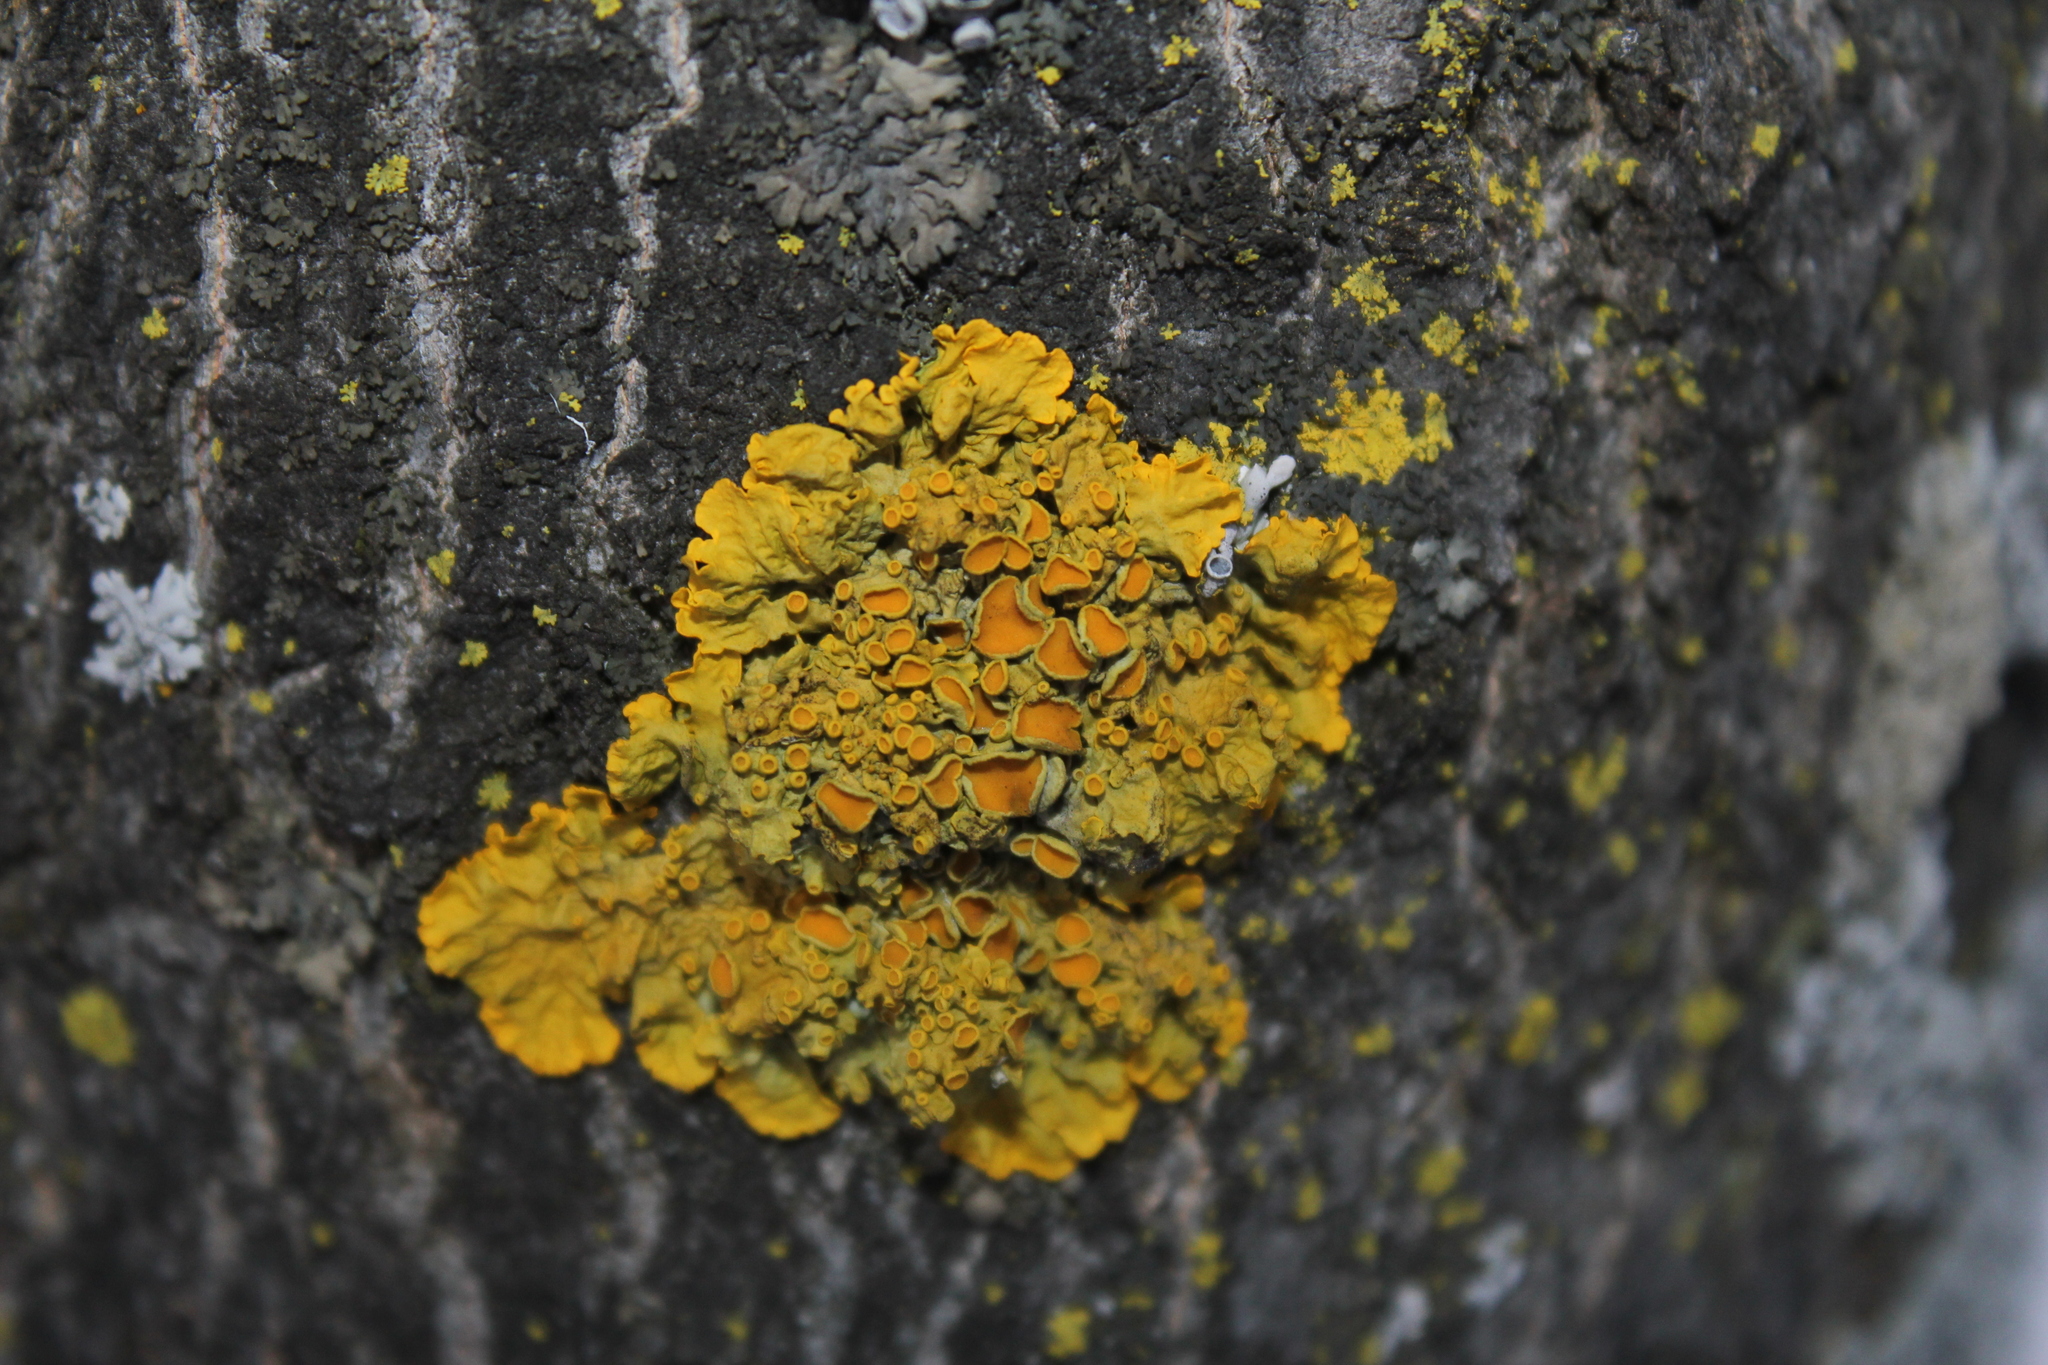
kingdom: Fungi
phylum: Ascomycota
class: Lecanoromycetes
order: Teloschistales
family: Teloschistaceae
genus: Xanthoria
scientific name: Xanthoria parietina
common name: Common orange lichen
